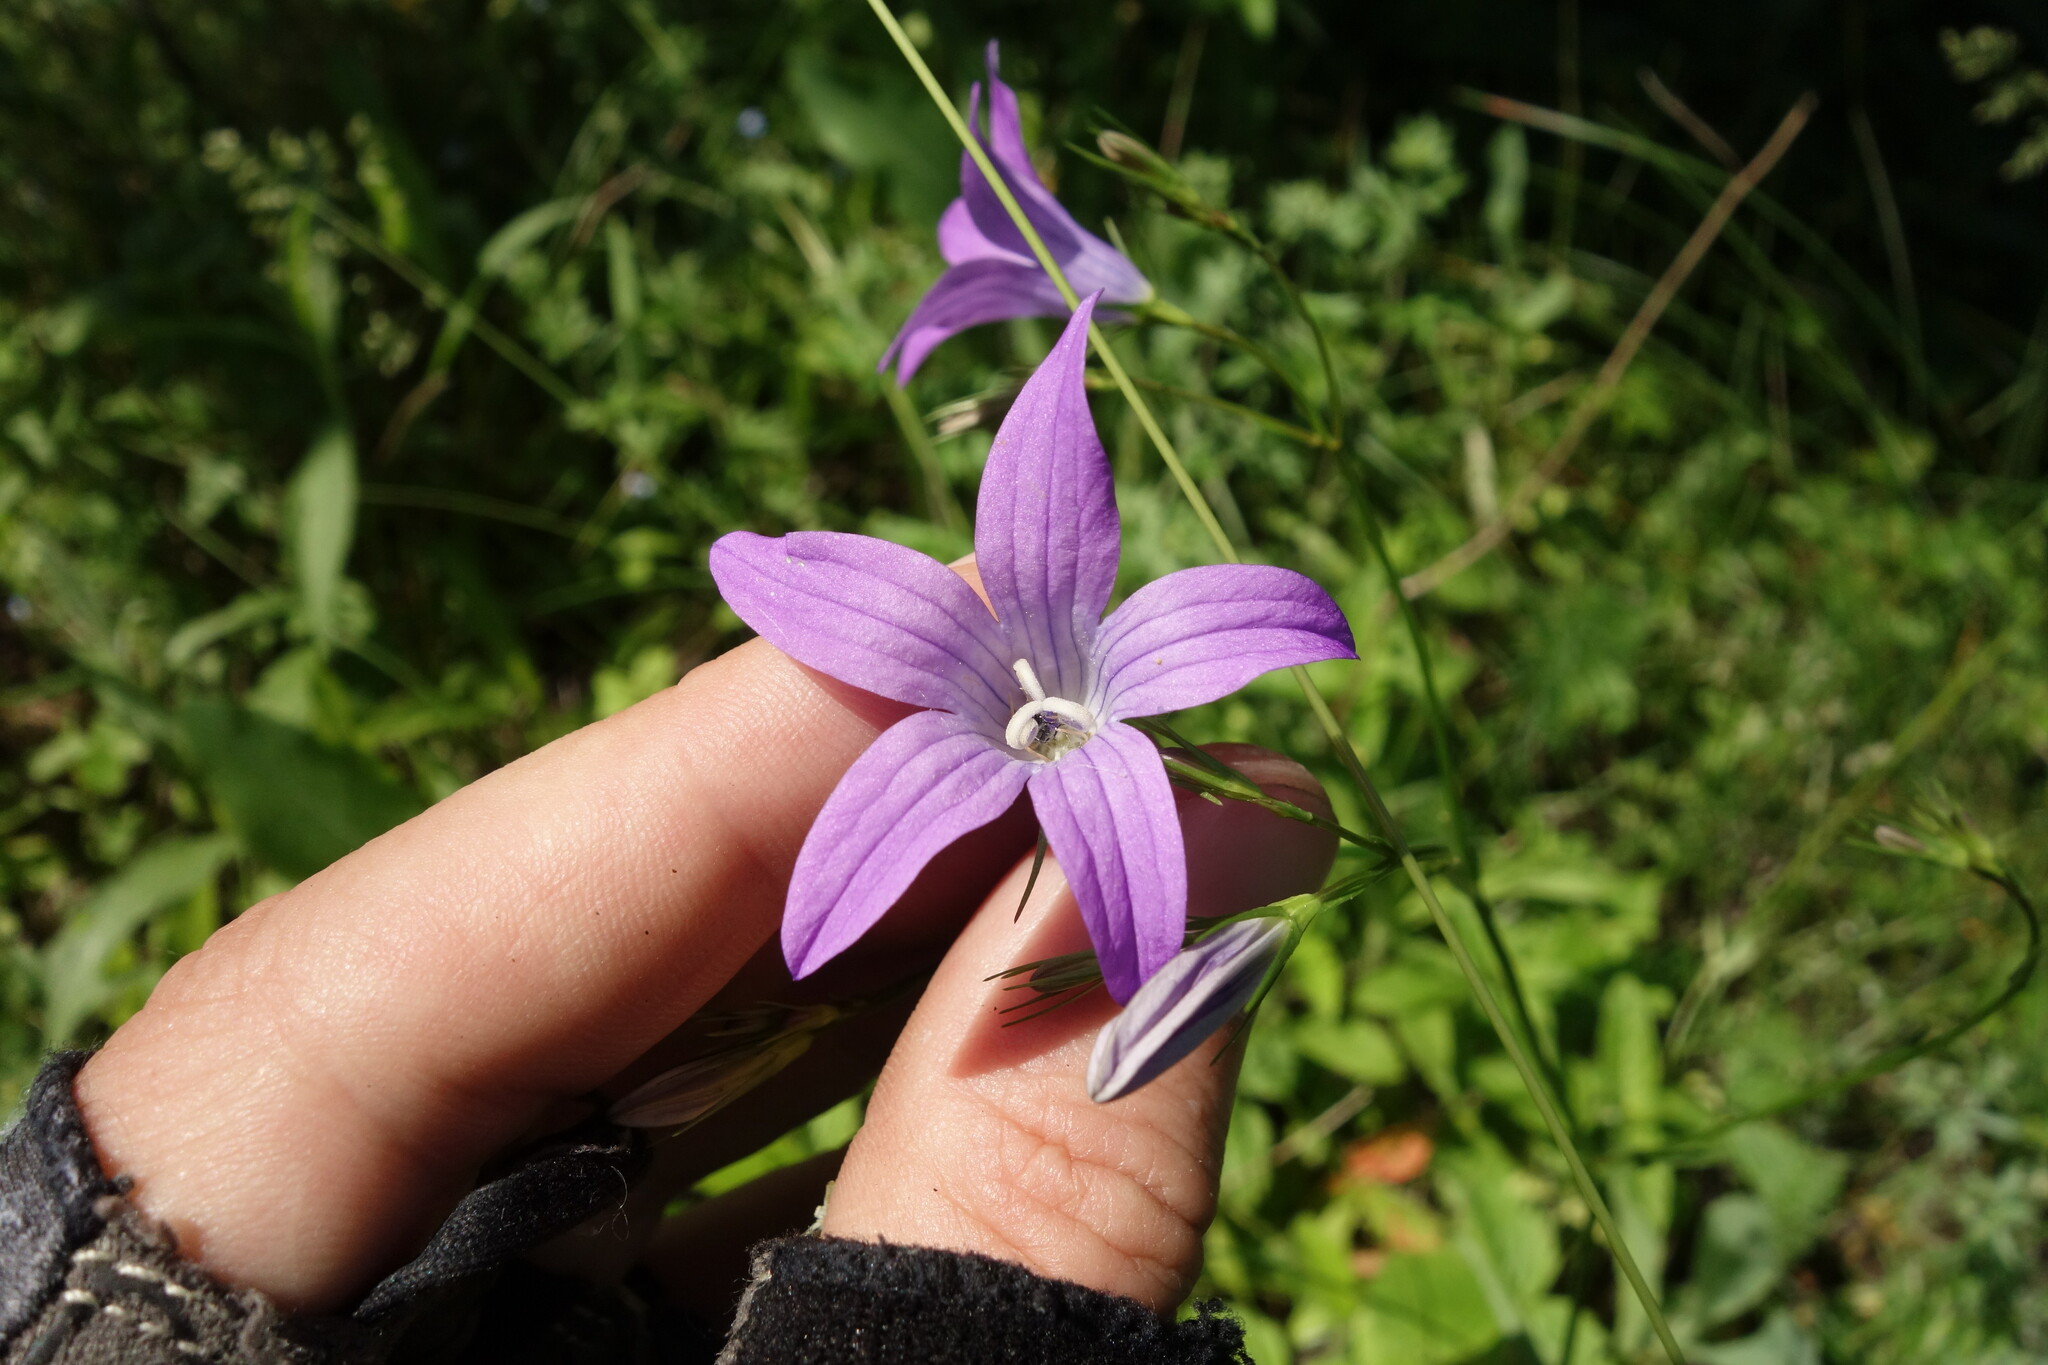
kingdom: Plantae
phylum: Tracheophyta
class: Magnoliopsida
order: Asterales
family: Campanulaceae
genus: Campanula
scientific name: Campanula patula
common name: Spreading bellflower
